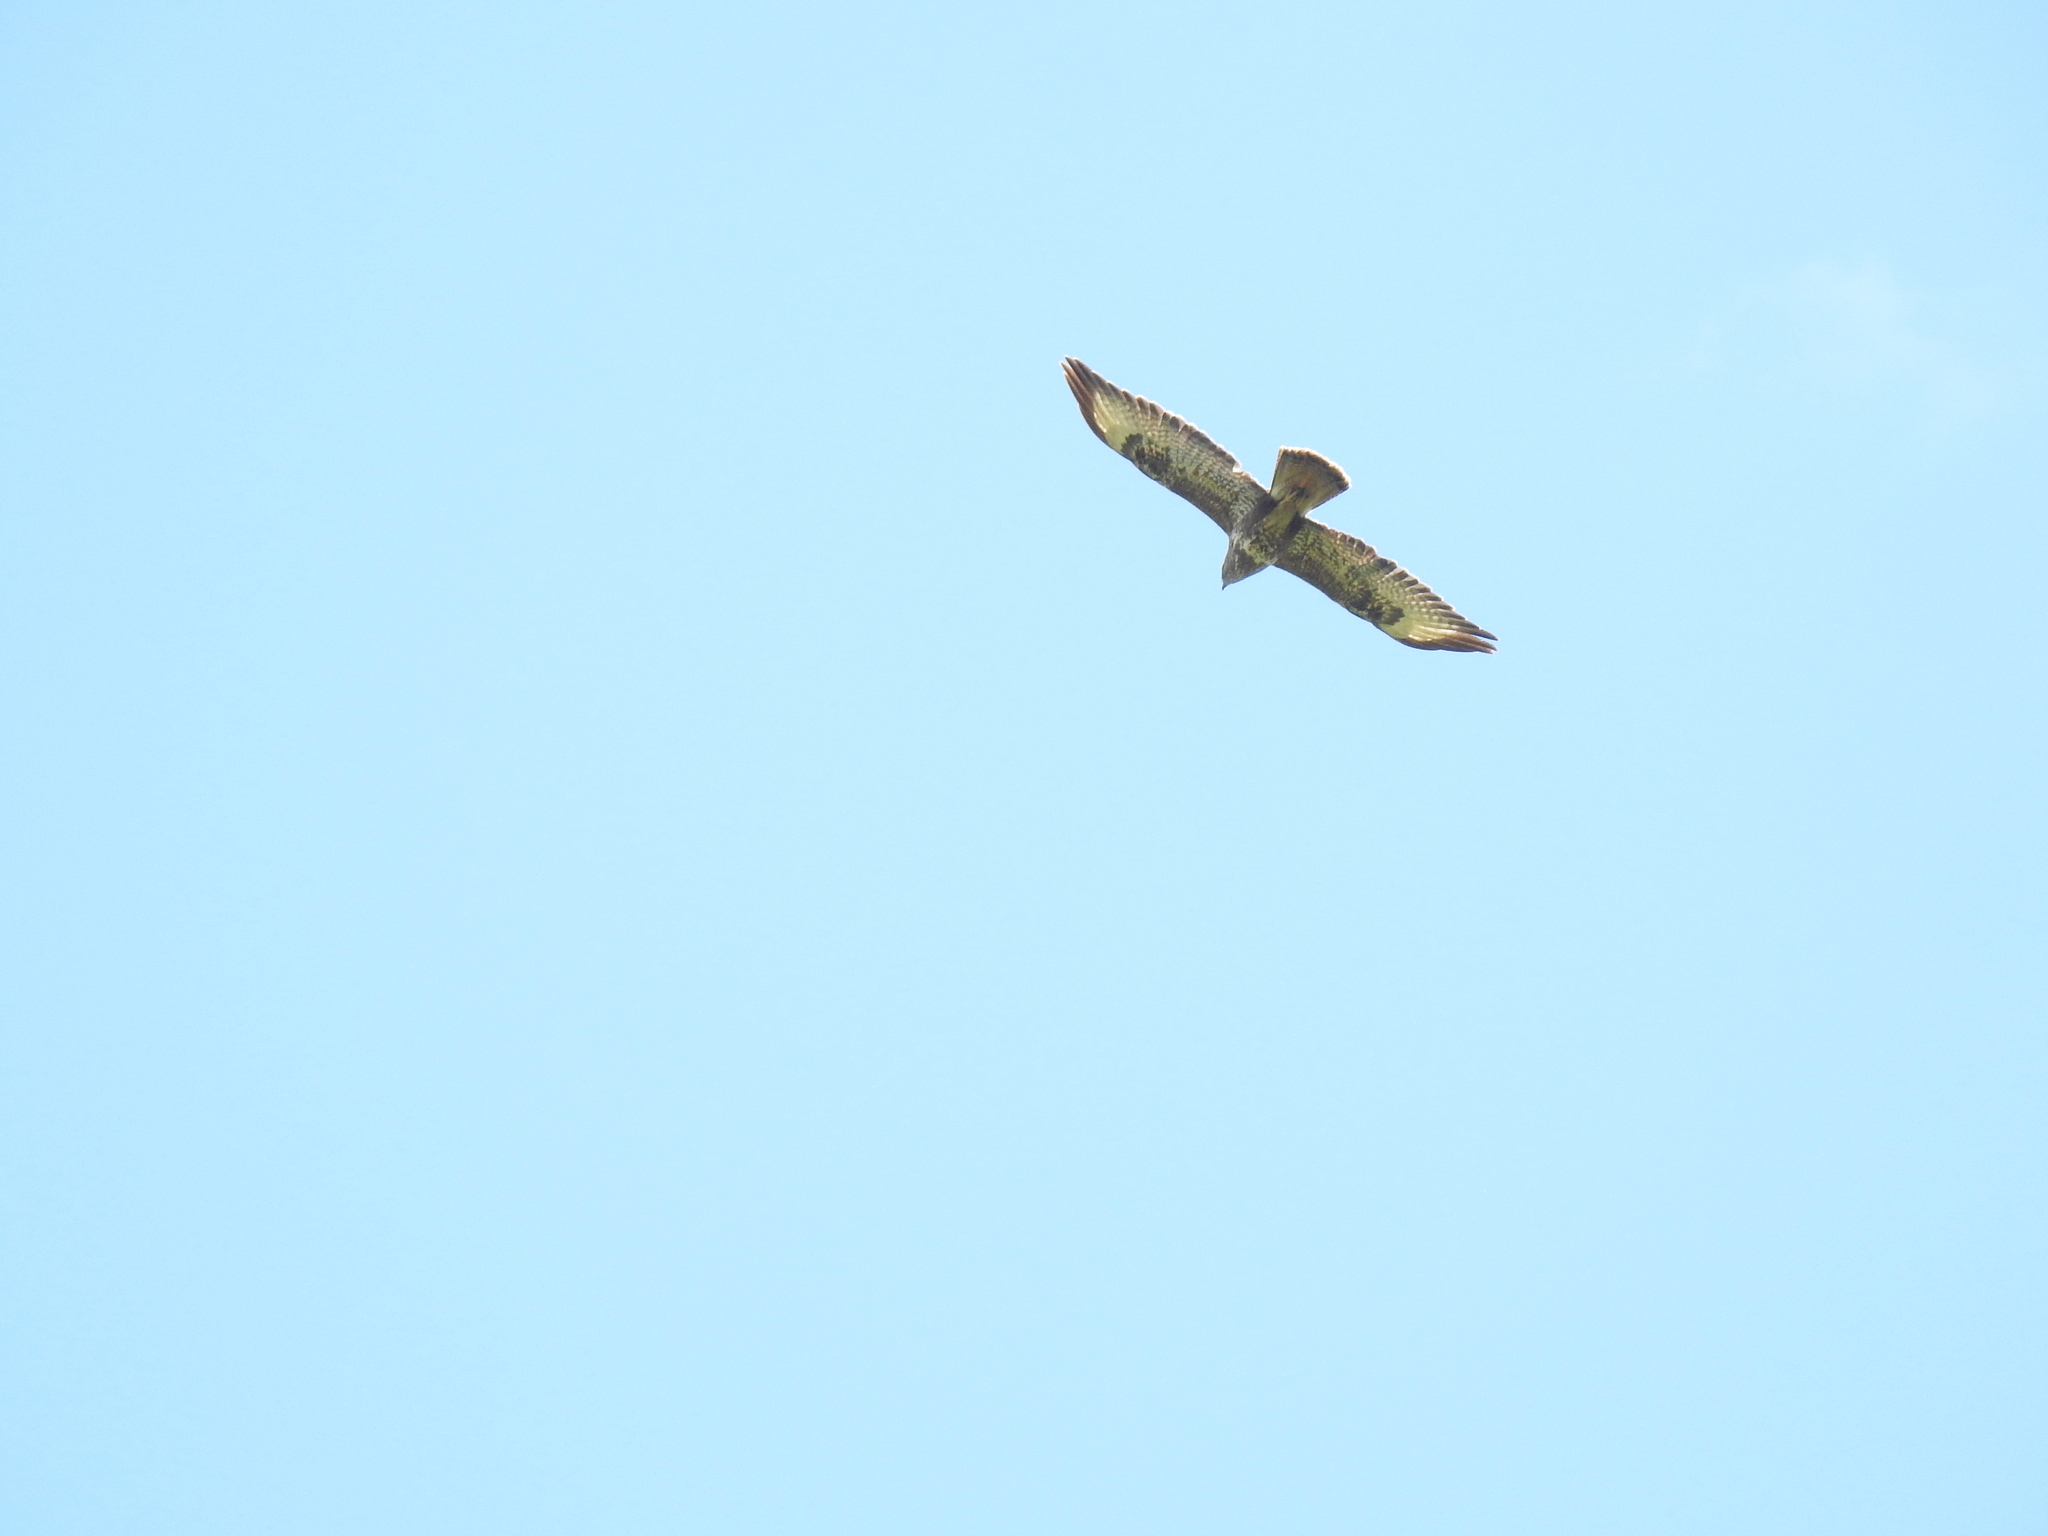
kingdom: Animalia
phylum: Chordata
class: Aves
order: Accipitriformes
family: Accipitridae
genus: Buteo
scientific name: Buteo buteo
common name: Common buzzard
